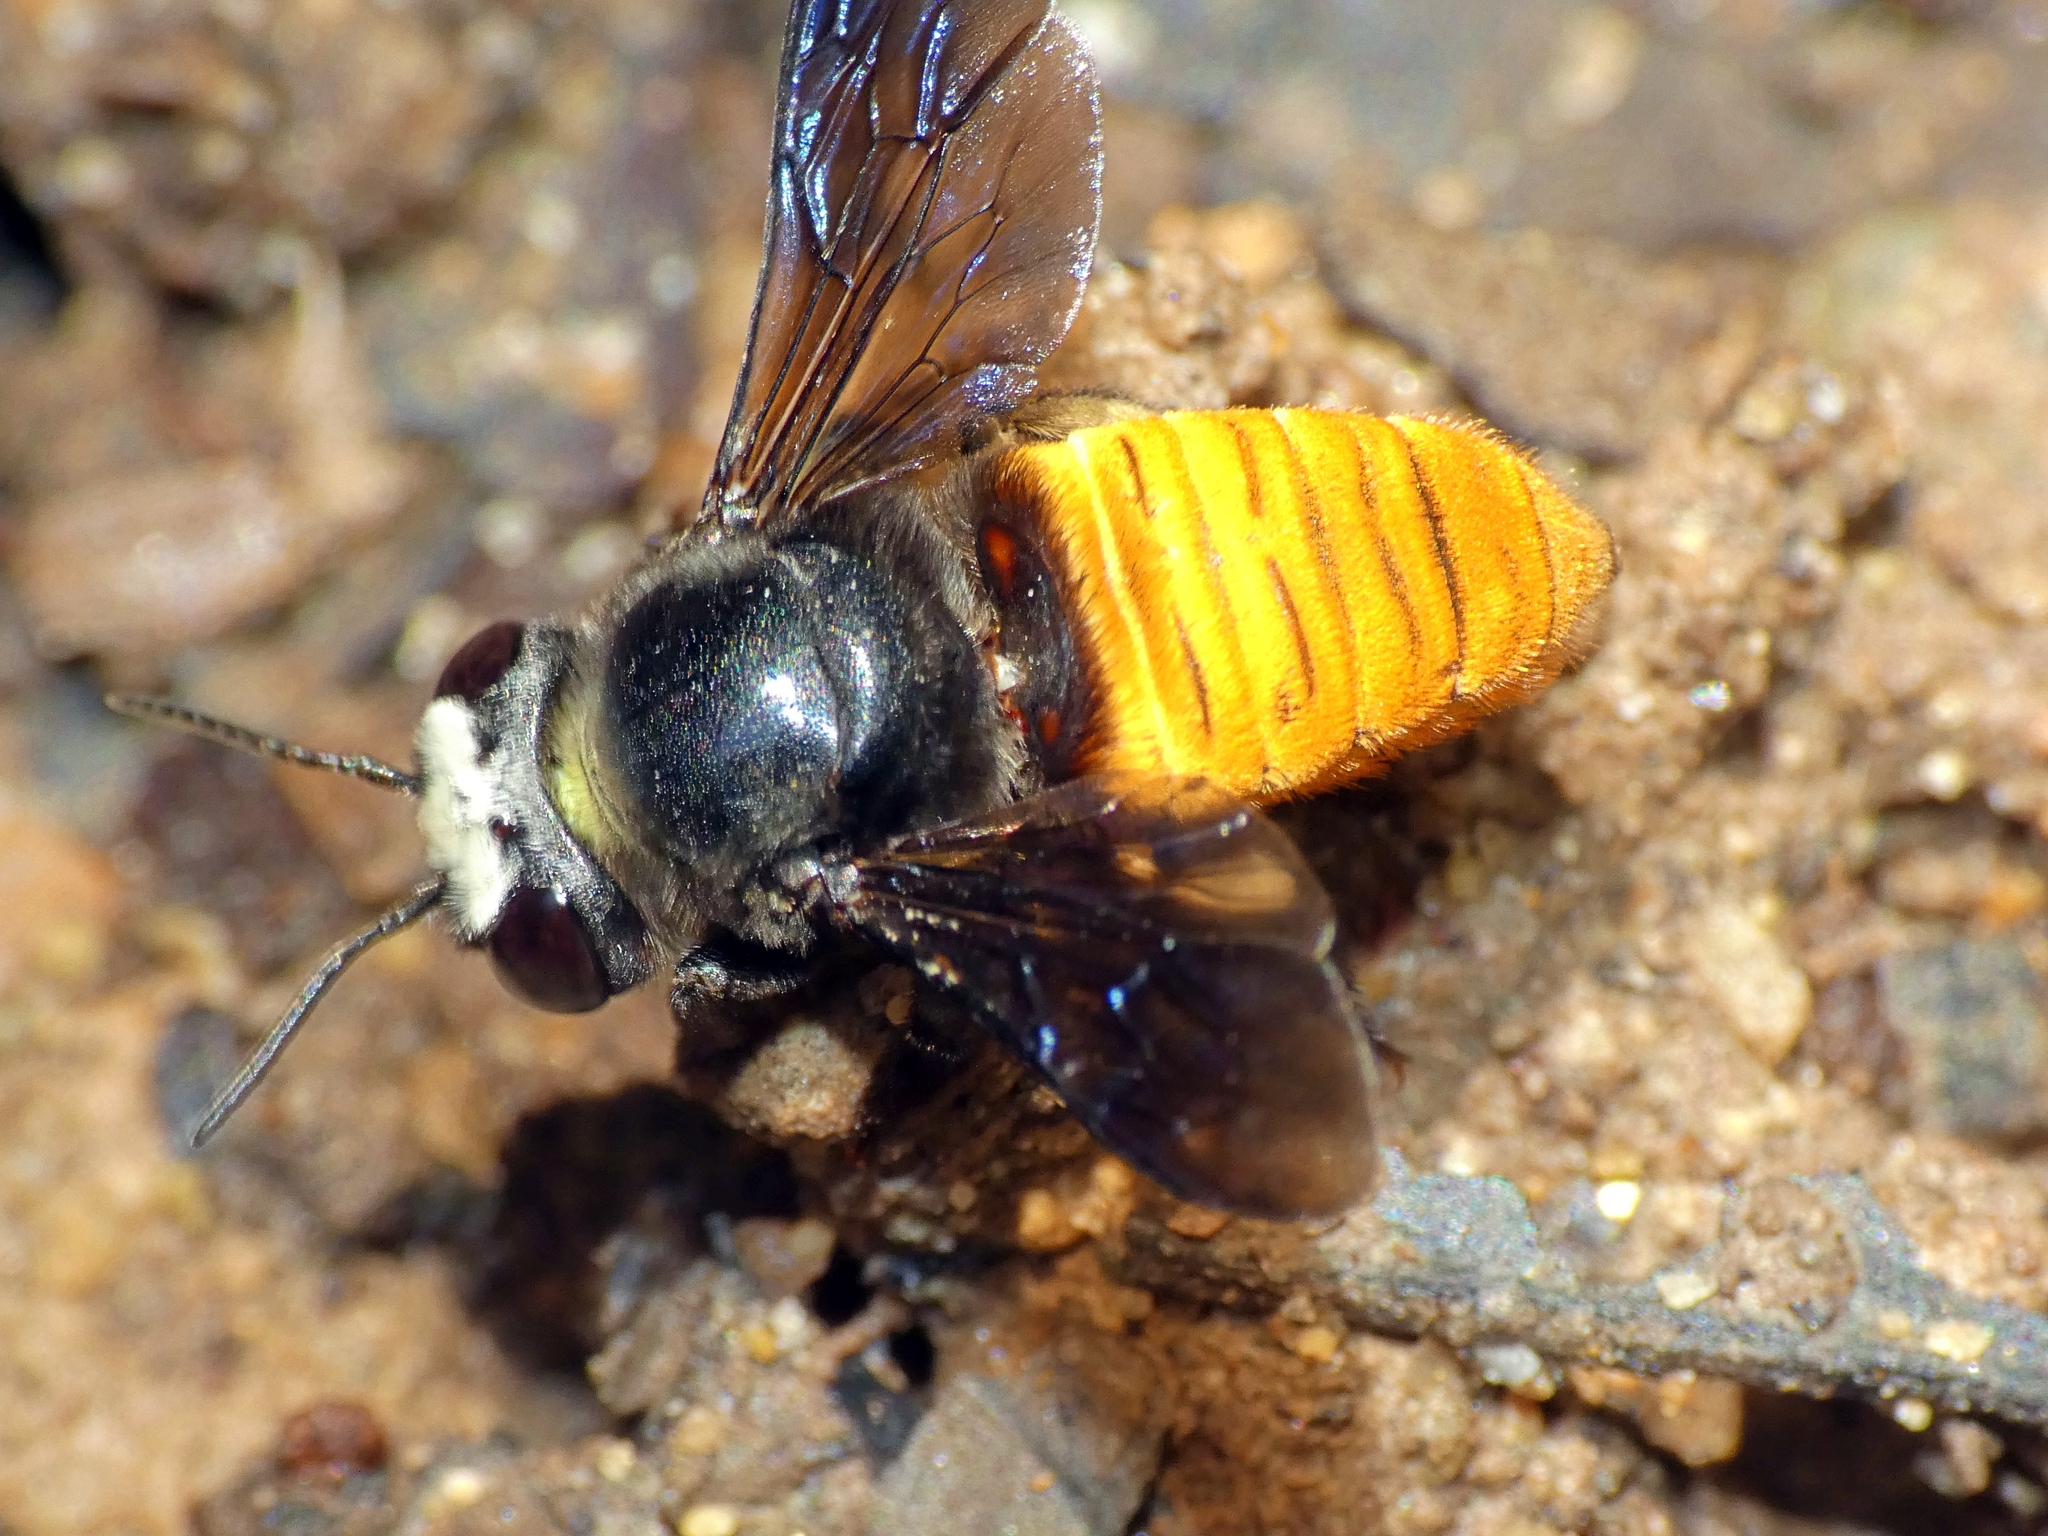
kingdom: Animalia
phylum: Arthropoda
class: Insecta
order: Hymenoptera
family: Megachilidae
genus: Megachile
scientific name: Megachile mystacea
